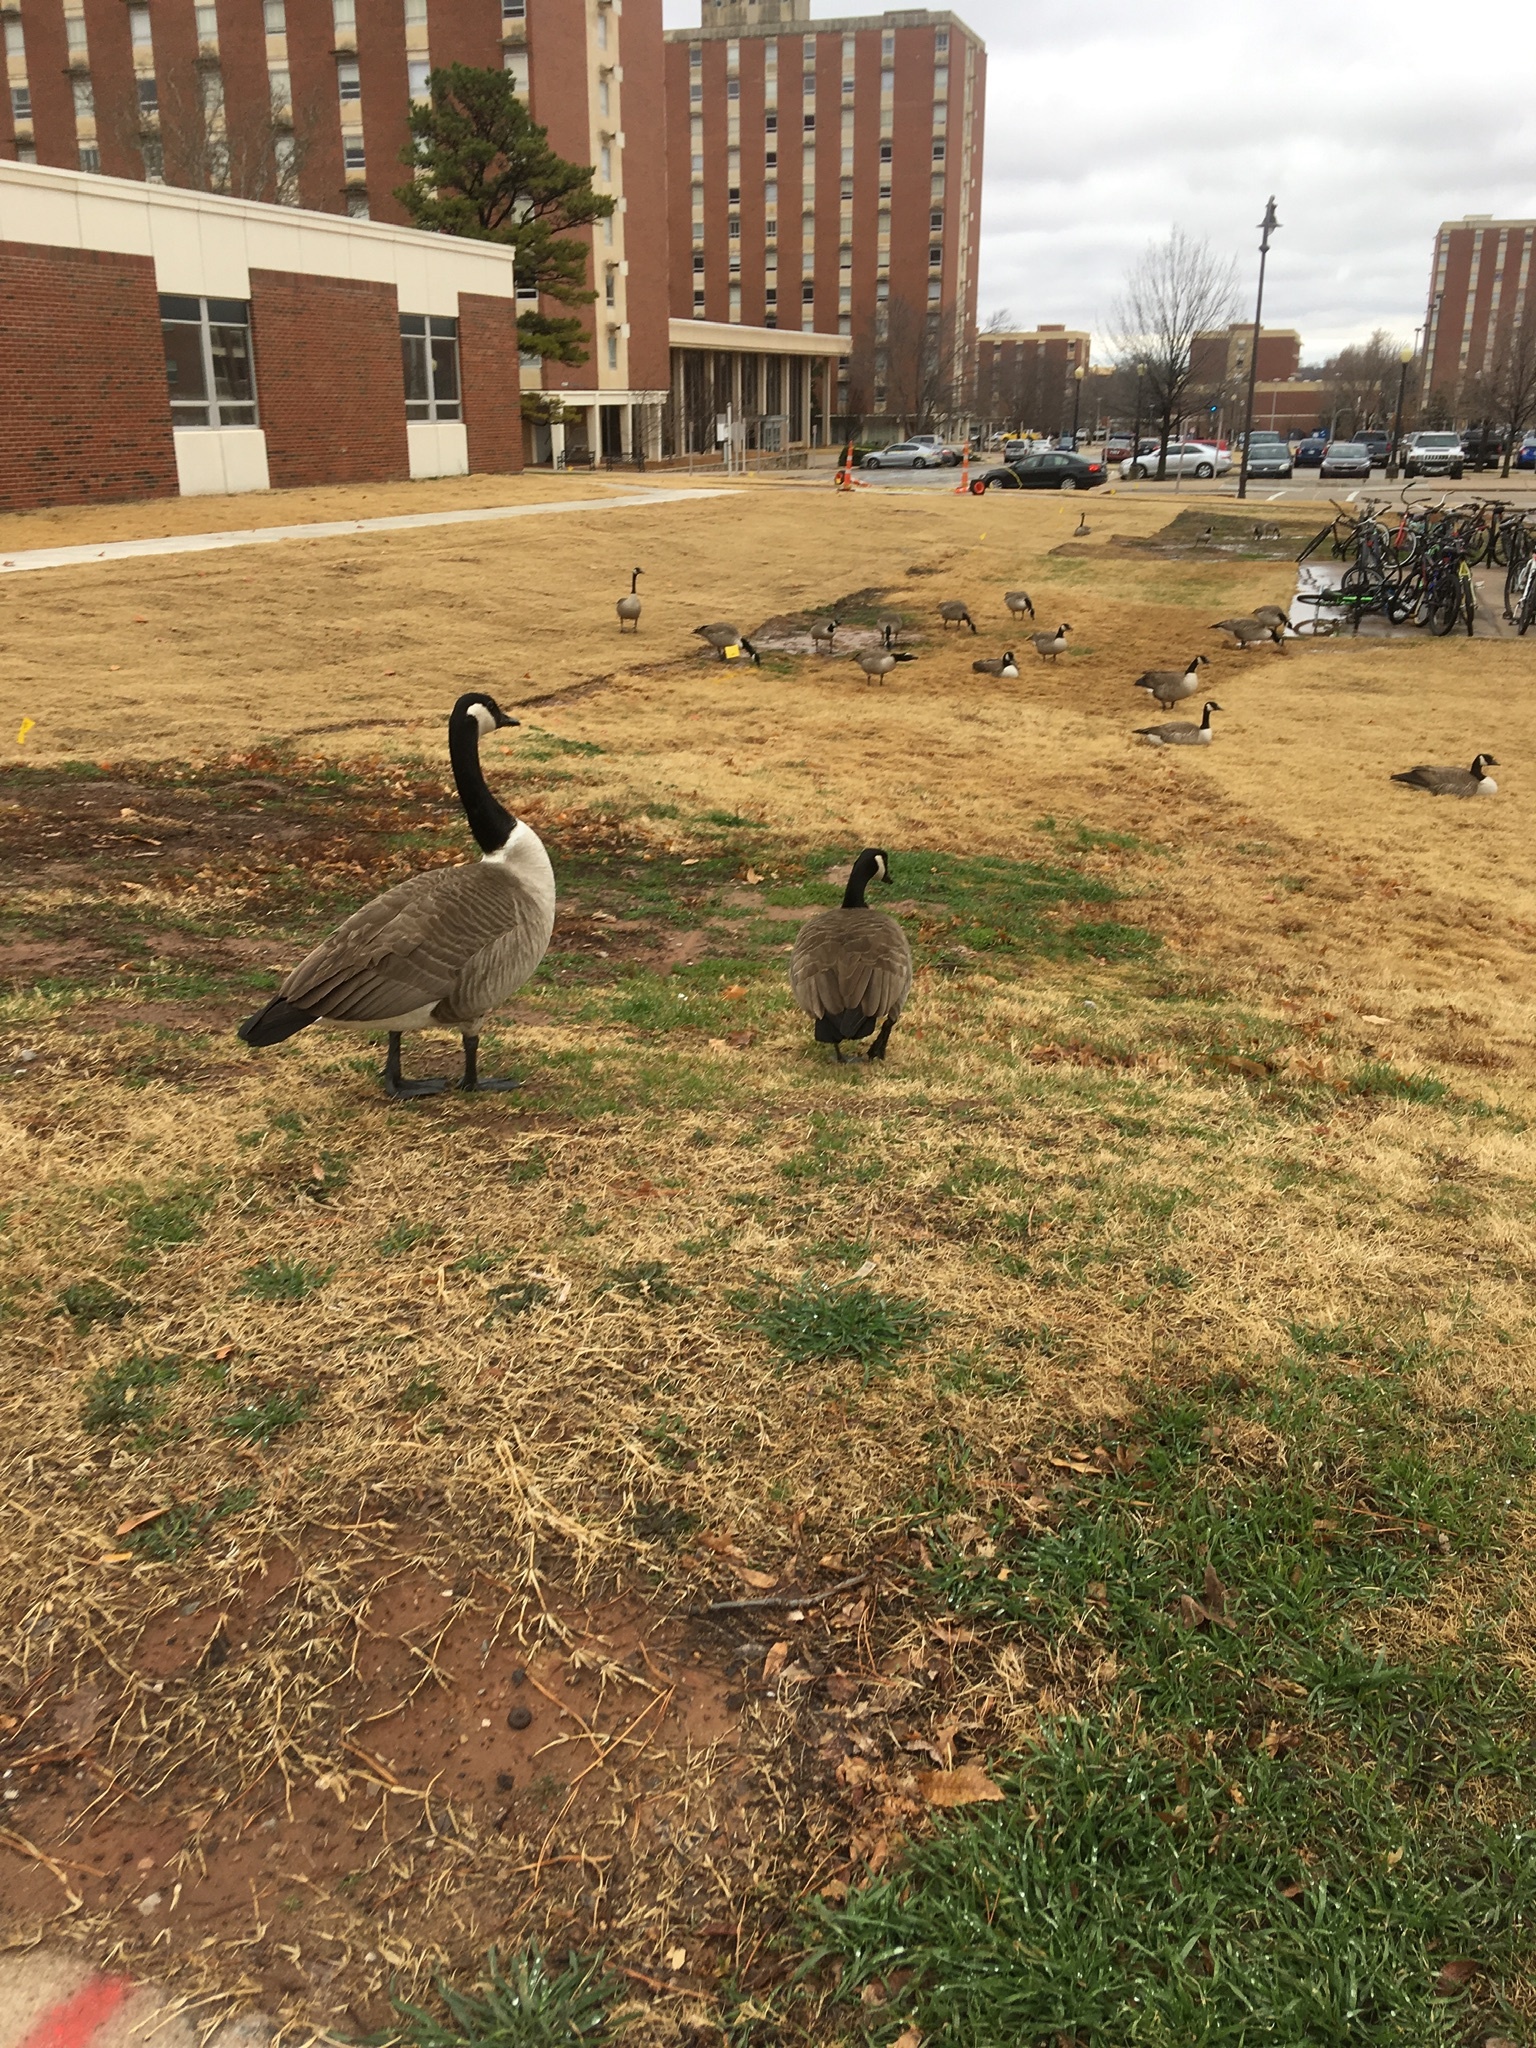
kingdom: Animalia
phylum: Chordata
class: Aves
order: Anseriformes
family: Anatidae
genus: Branta
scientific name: Branta canadensis
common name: Canada goose
